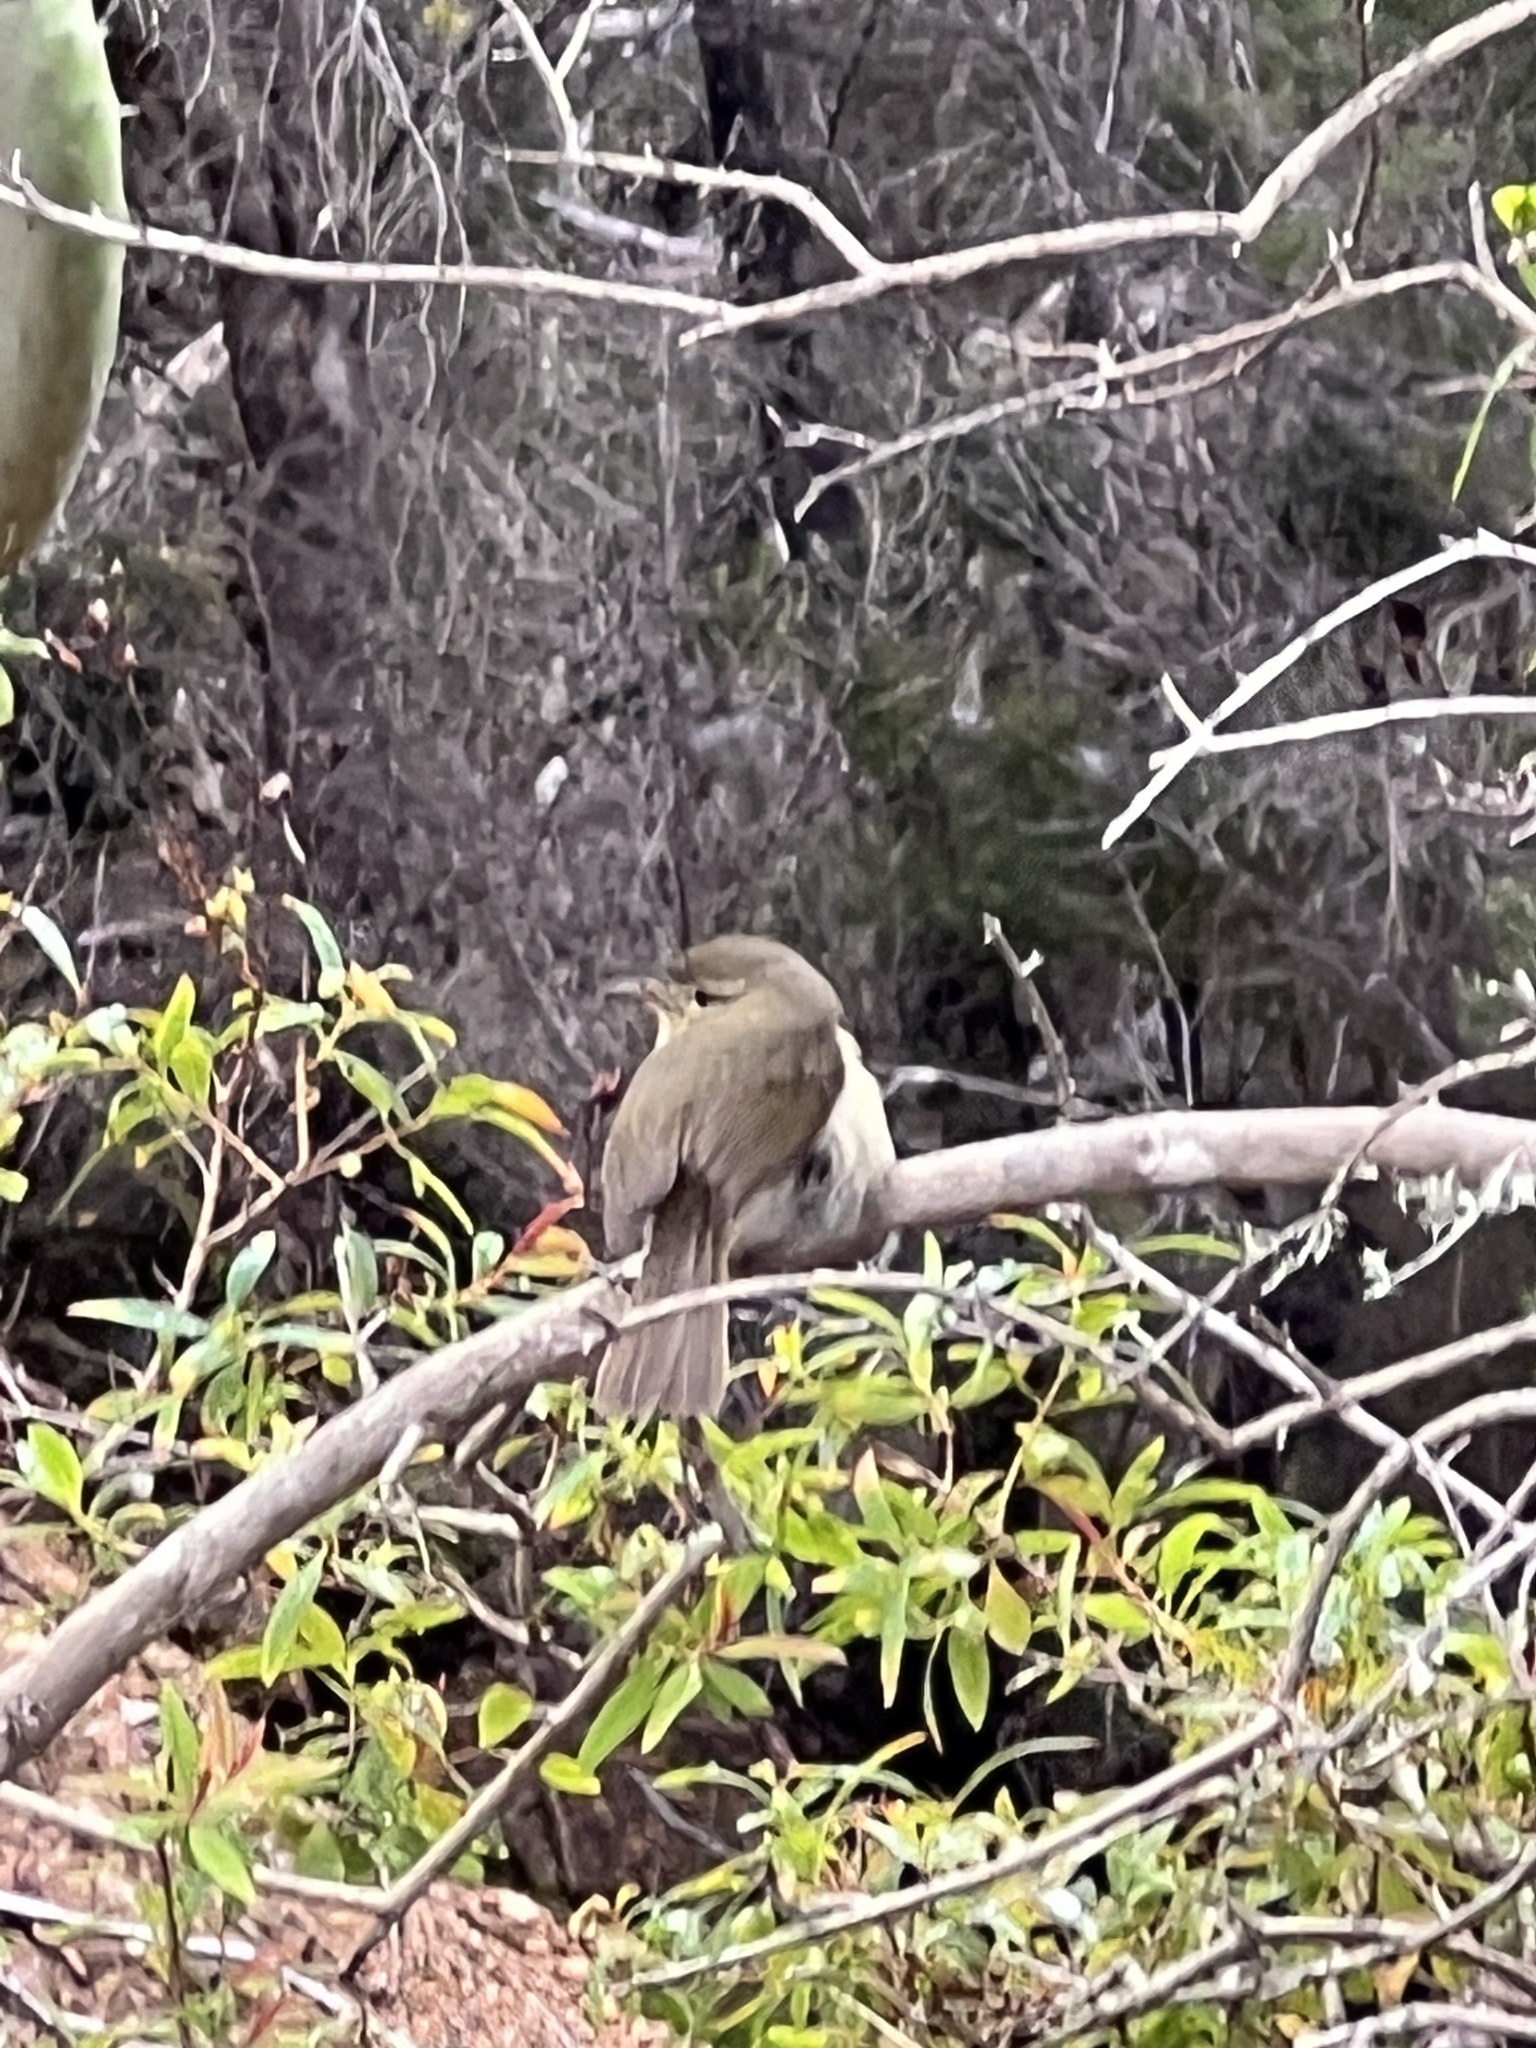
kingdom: Animalia
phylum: Chordata
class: Aves
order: Passeriformes
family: Phylloscopidae
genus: Phylloscopus
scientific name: Phylloscopus canariensis
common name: Canary islands chiffchaff
